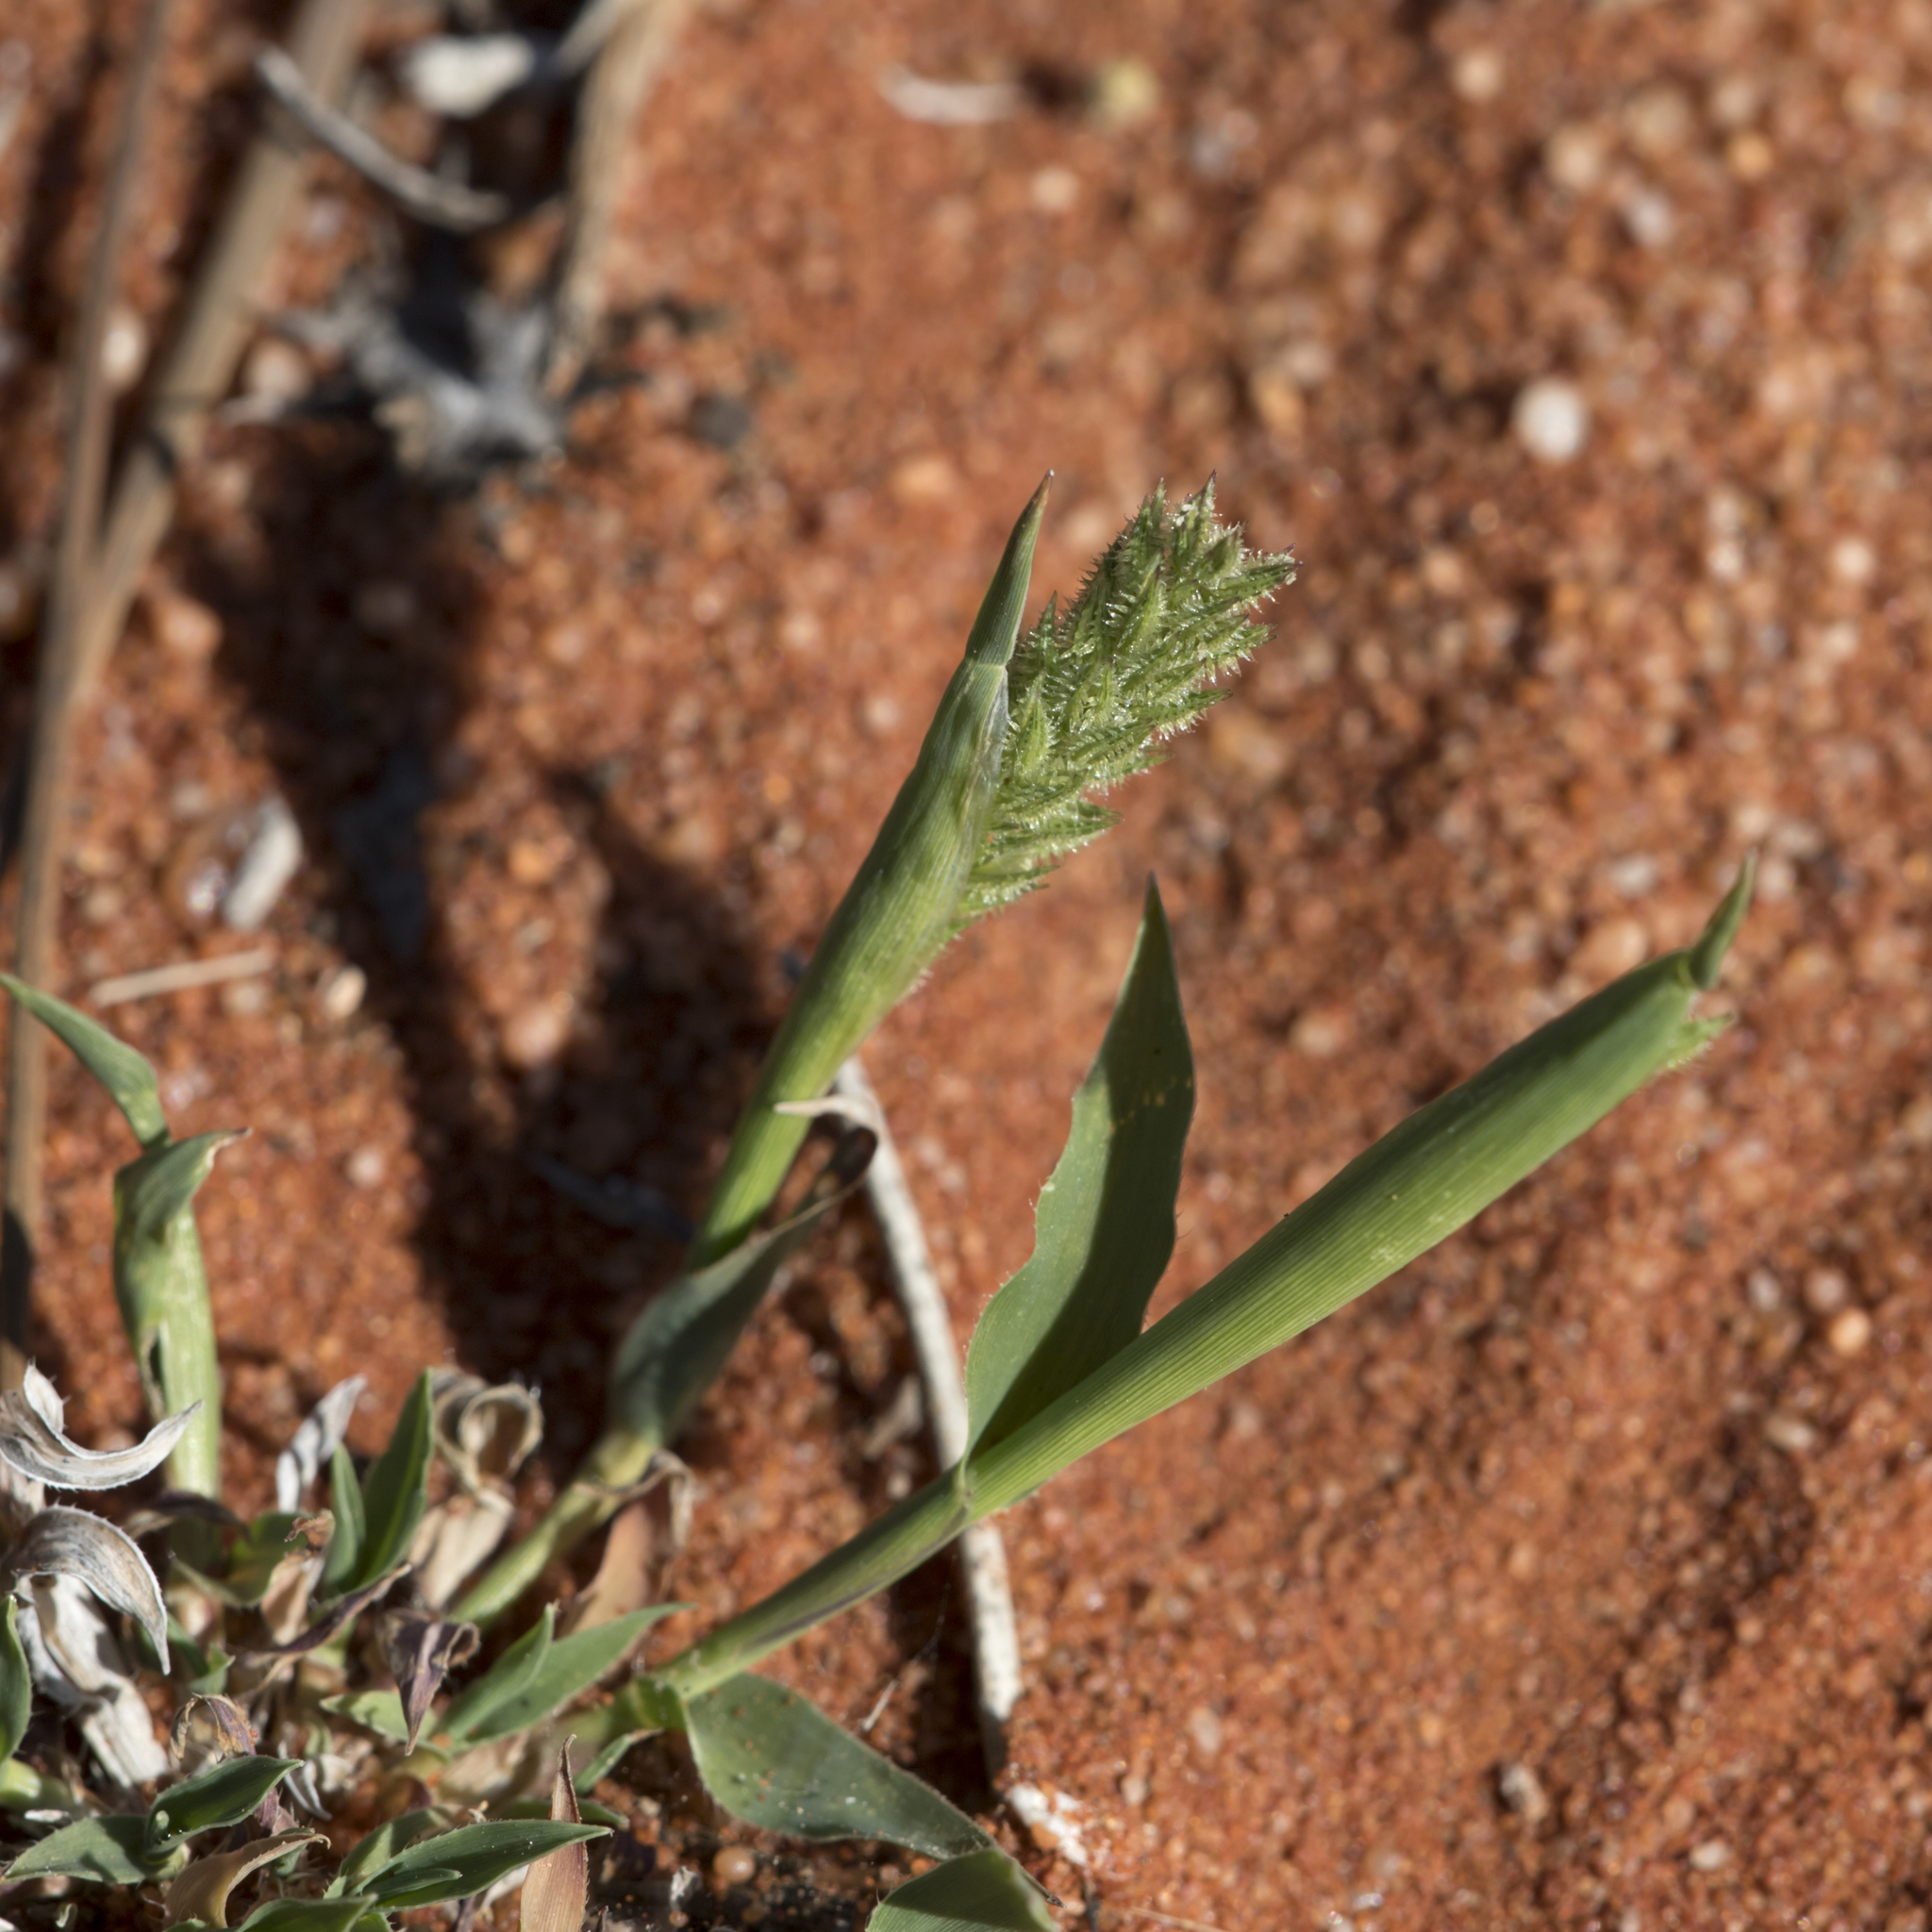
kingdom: Plantae
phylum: Tracheophyta
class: Liliopsida
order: Poales
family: Poaceae
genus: Tragus
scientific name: Tragus australianus
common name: Australian bur-grass
